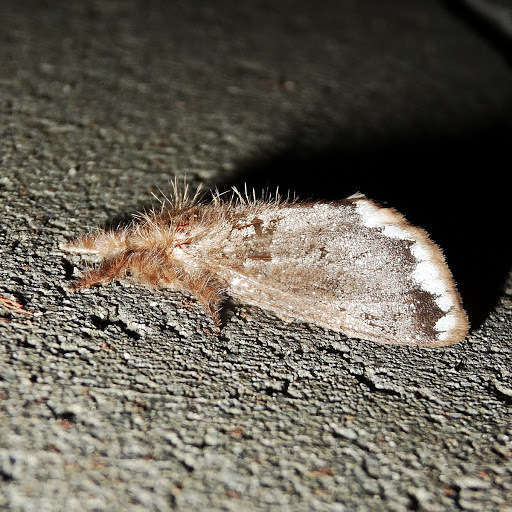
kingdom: Animalia
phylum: Arthropoda
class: Insecta
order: Lepidoptera
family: Erebidae
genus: Euproctis
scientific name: Euproctis
